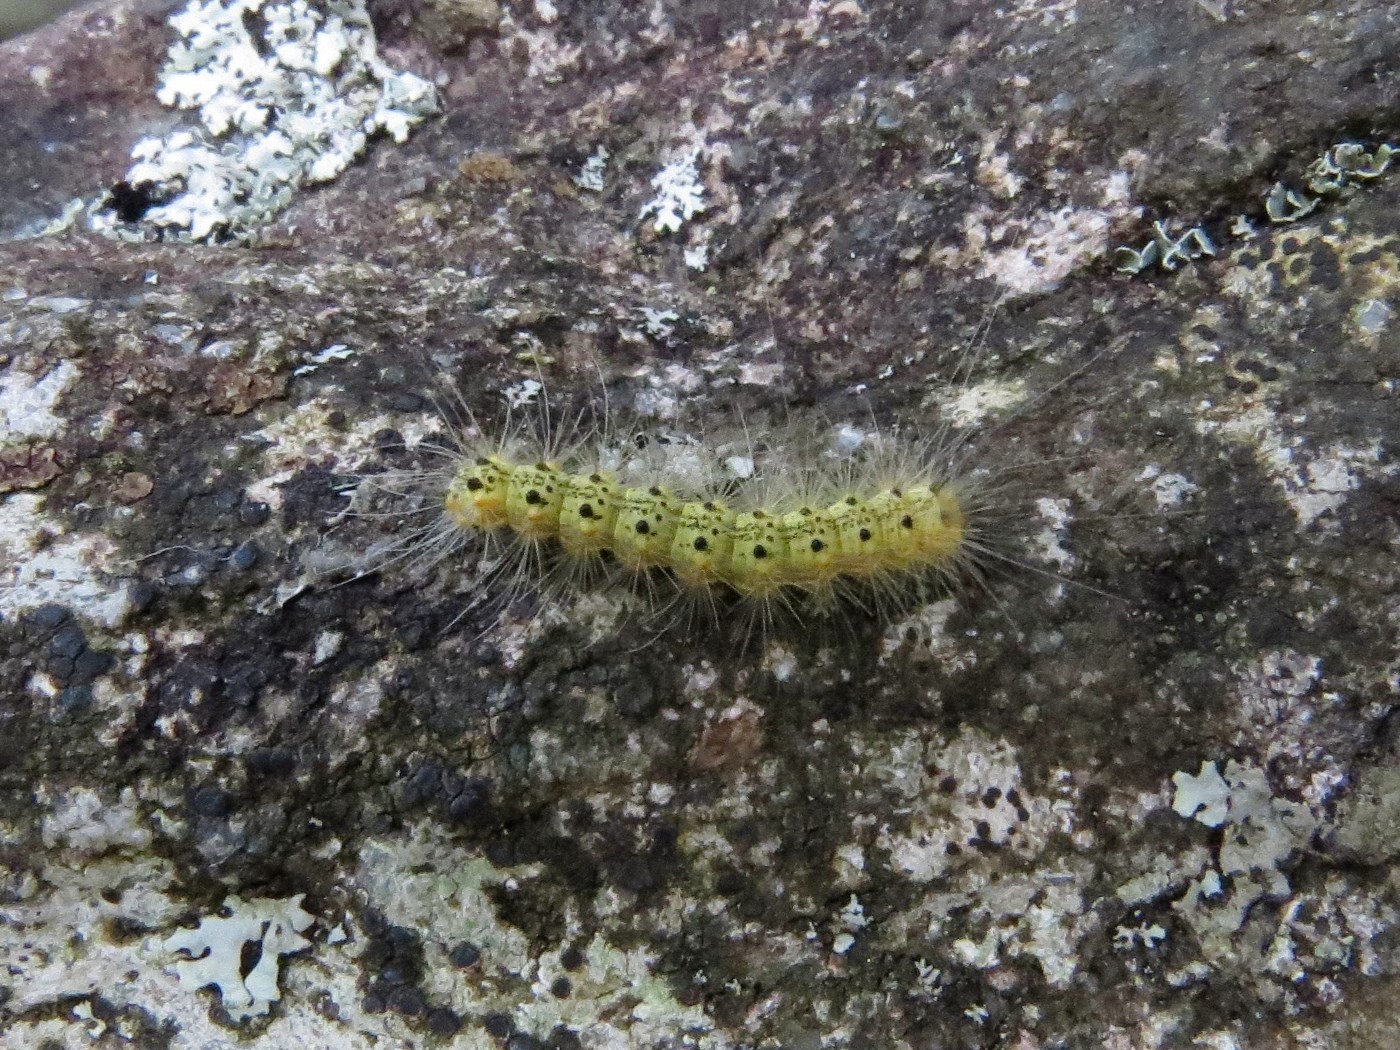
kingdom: Animalia
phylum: Arthropoda
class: Insecta
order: Lepidoptera
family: Erebidae
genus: Hyphantria
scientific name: Hyphantria cunea
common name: American white moth
